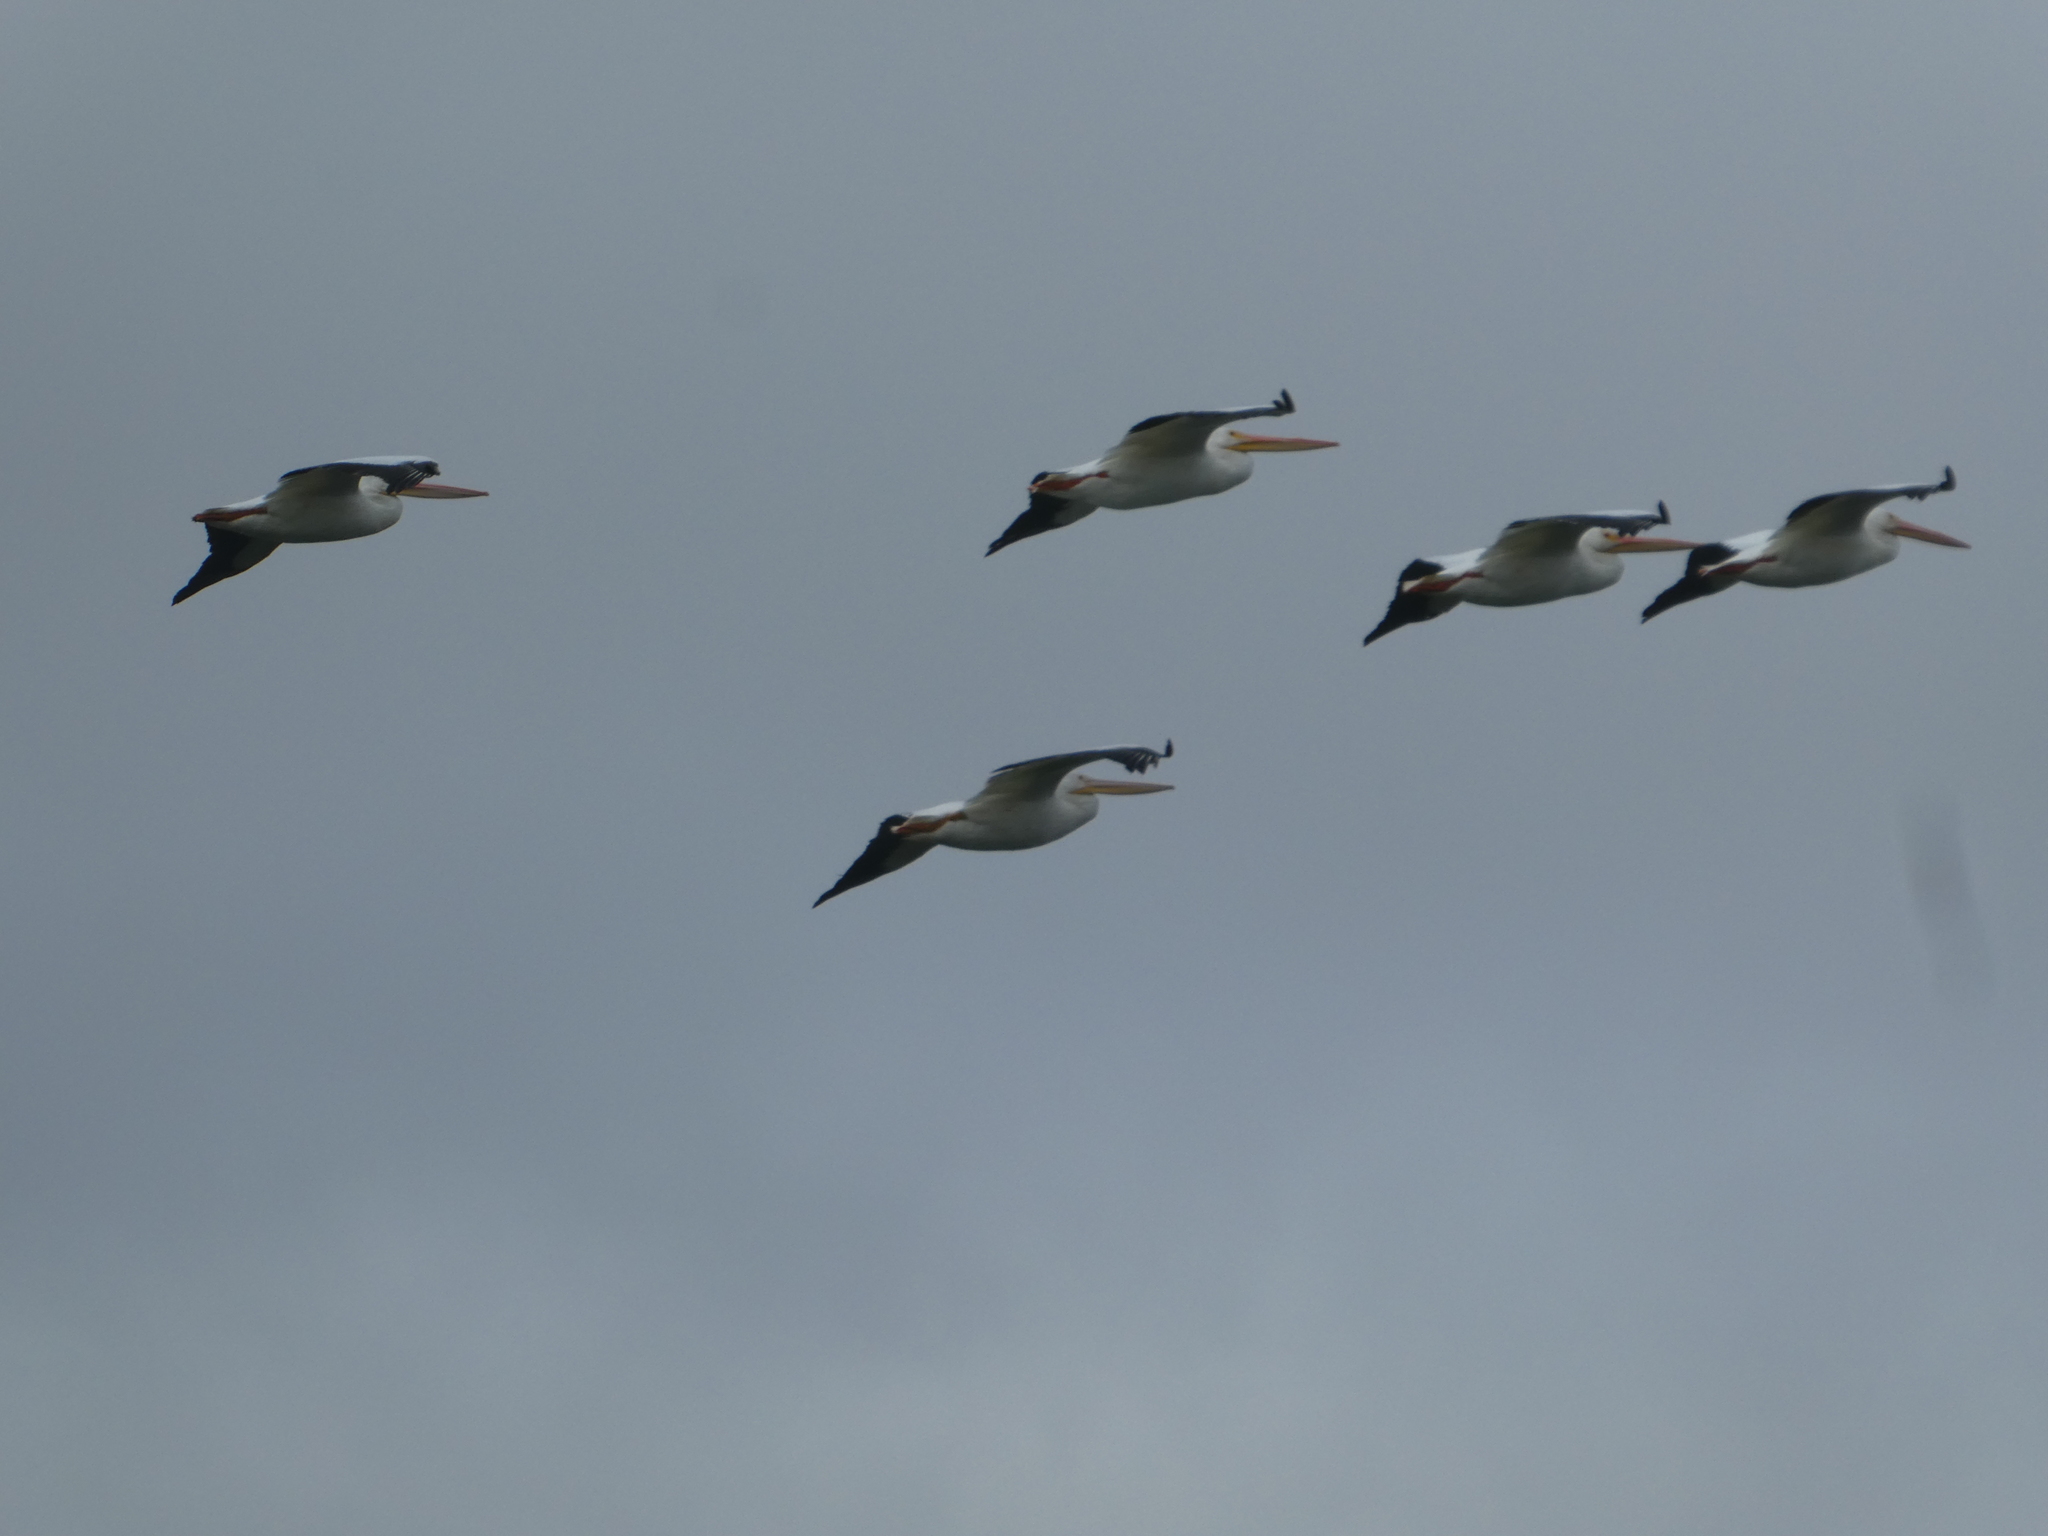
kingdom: Animalia
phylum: Chordata
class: Aves
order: Pelecaniformes
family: Pelecanidae
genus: Pelecanus
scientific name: Pelecanus erythrorhynchos
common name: American white pelican
